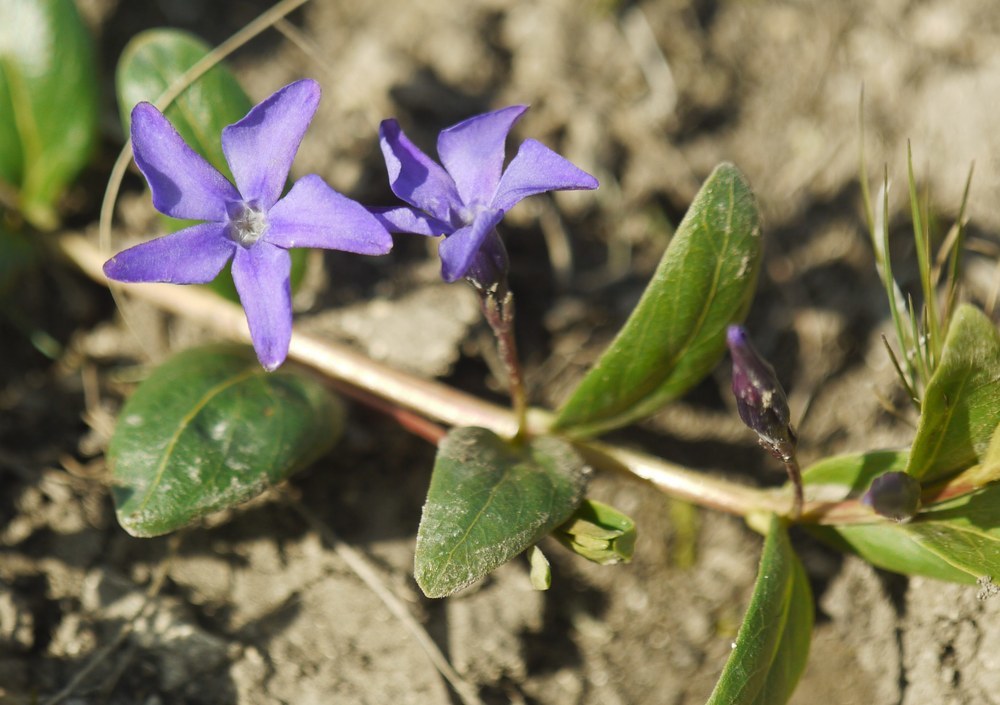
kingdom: Plantae
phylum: Tracheophyta
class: Magnoliopsida
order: Gentianales
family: Apocynaceae
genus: Vinca
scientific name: Vinca herbacea
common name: Herbaceous periwinkle
